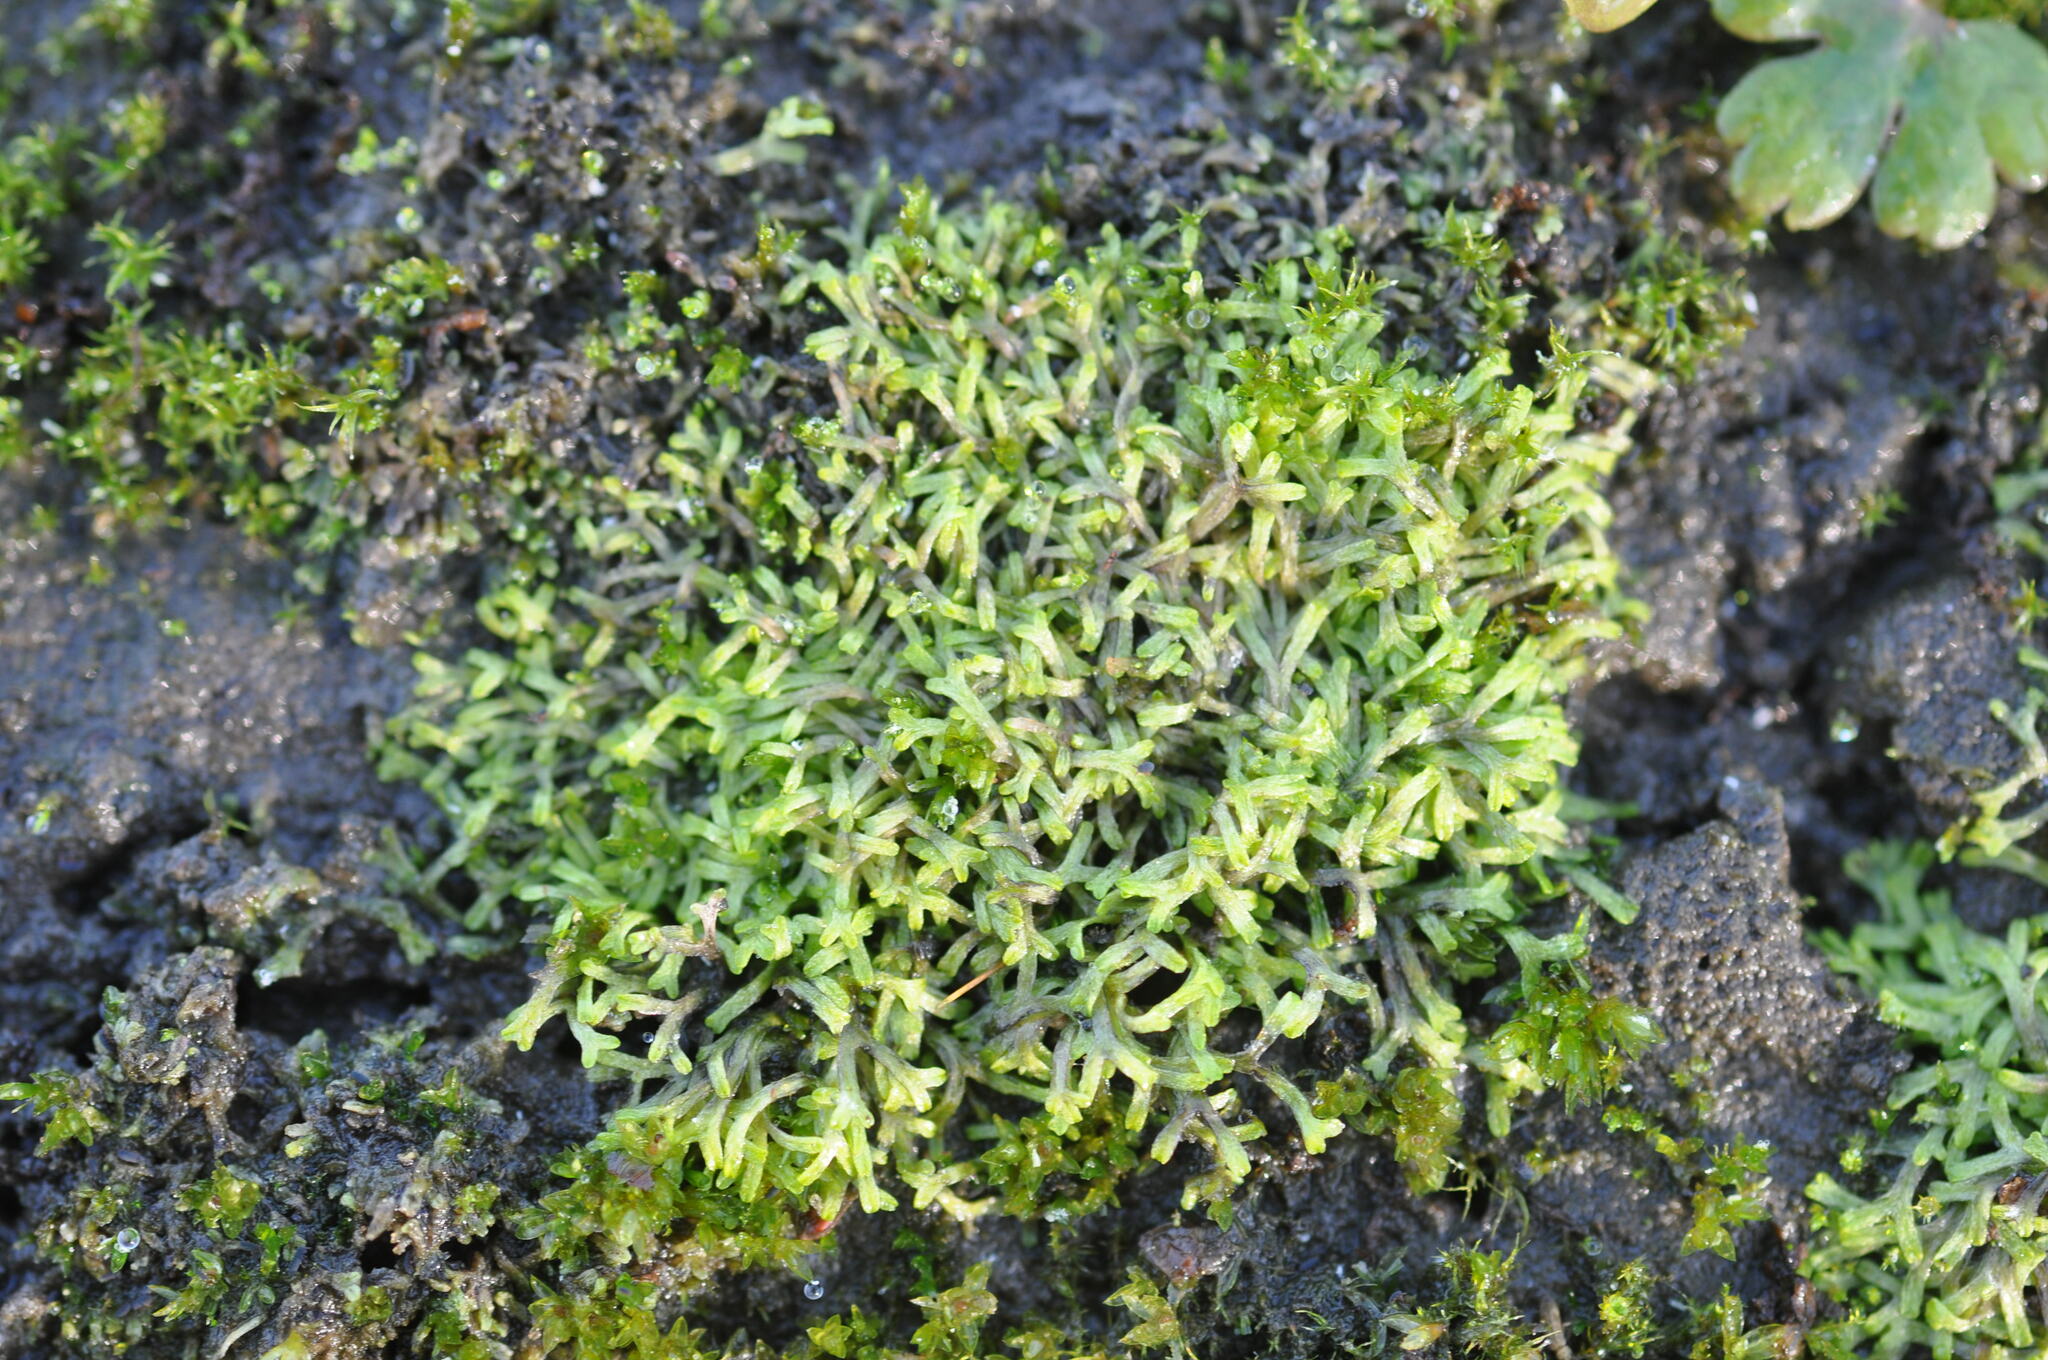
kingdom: Plantae
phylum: Marchantiophyta
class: Marchantiopsida
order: Marchantiales
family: Ricciaceae
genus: Riccia
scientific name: Riccia fluitans
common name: Floating crystalwort
